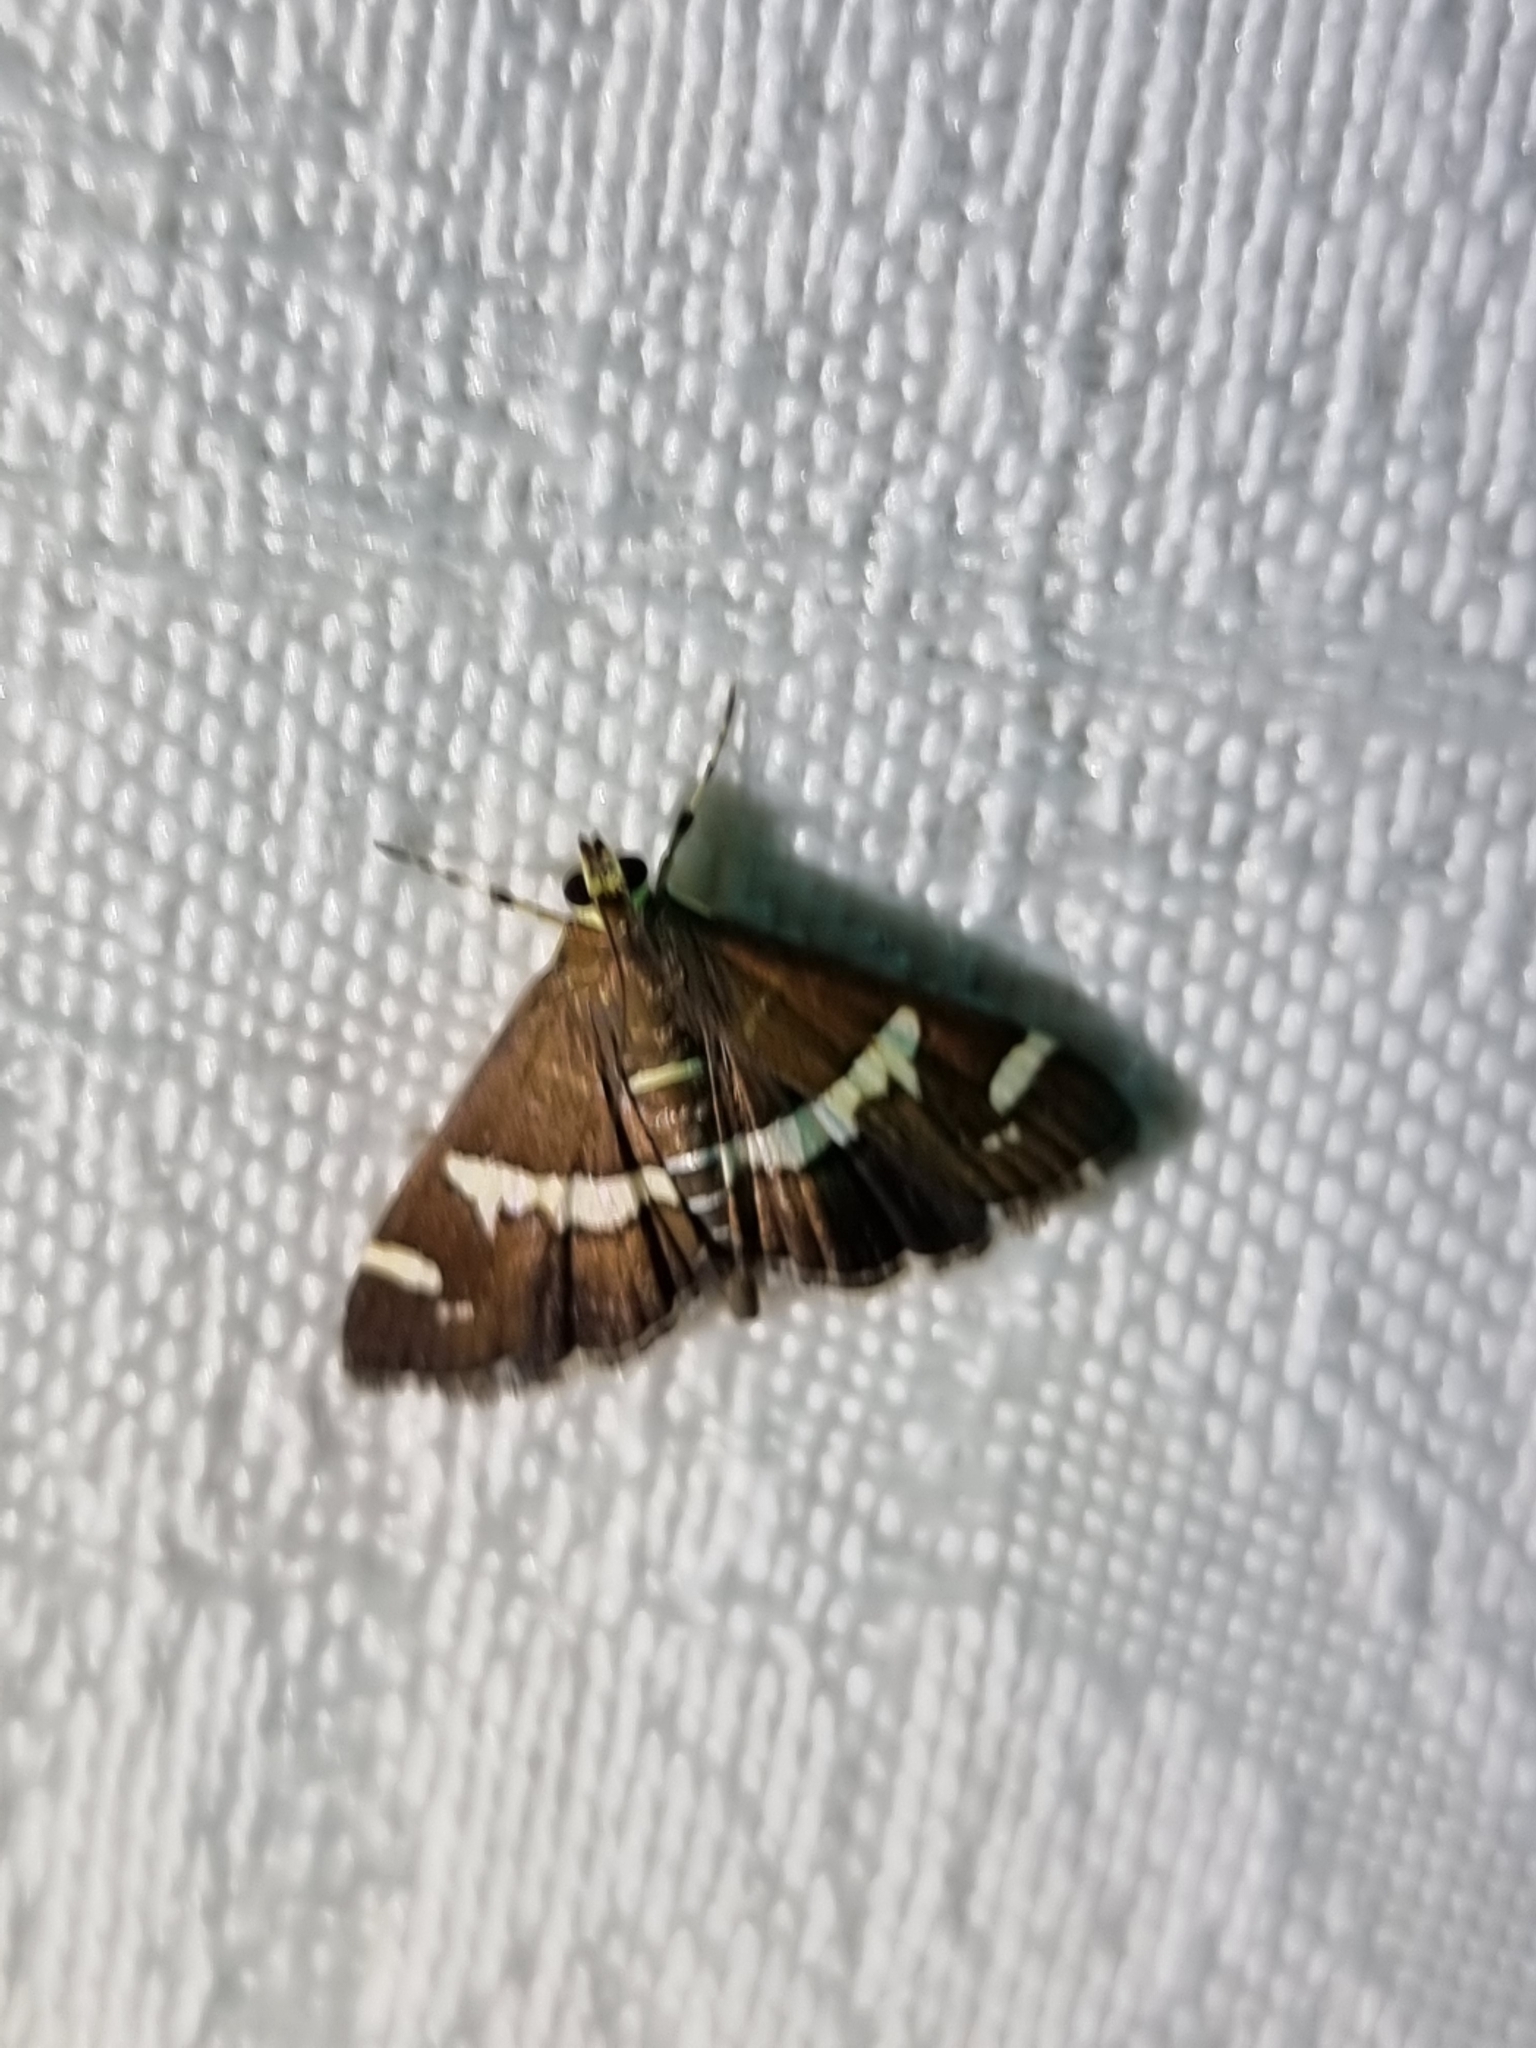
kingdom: Animalia
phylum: Arthropoda
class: Insecta
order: Lepidoptera
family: Crambidae
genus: Spoladea
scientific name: Spoladea recurvalis
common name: Beet webworm moth
